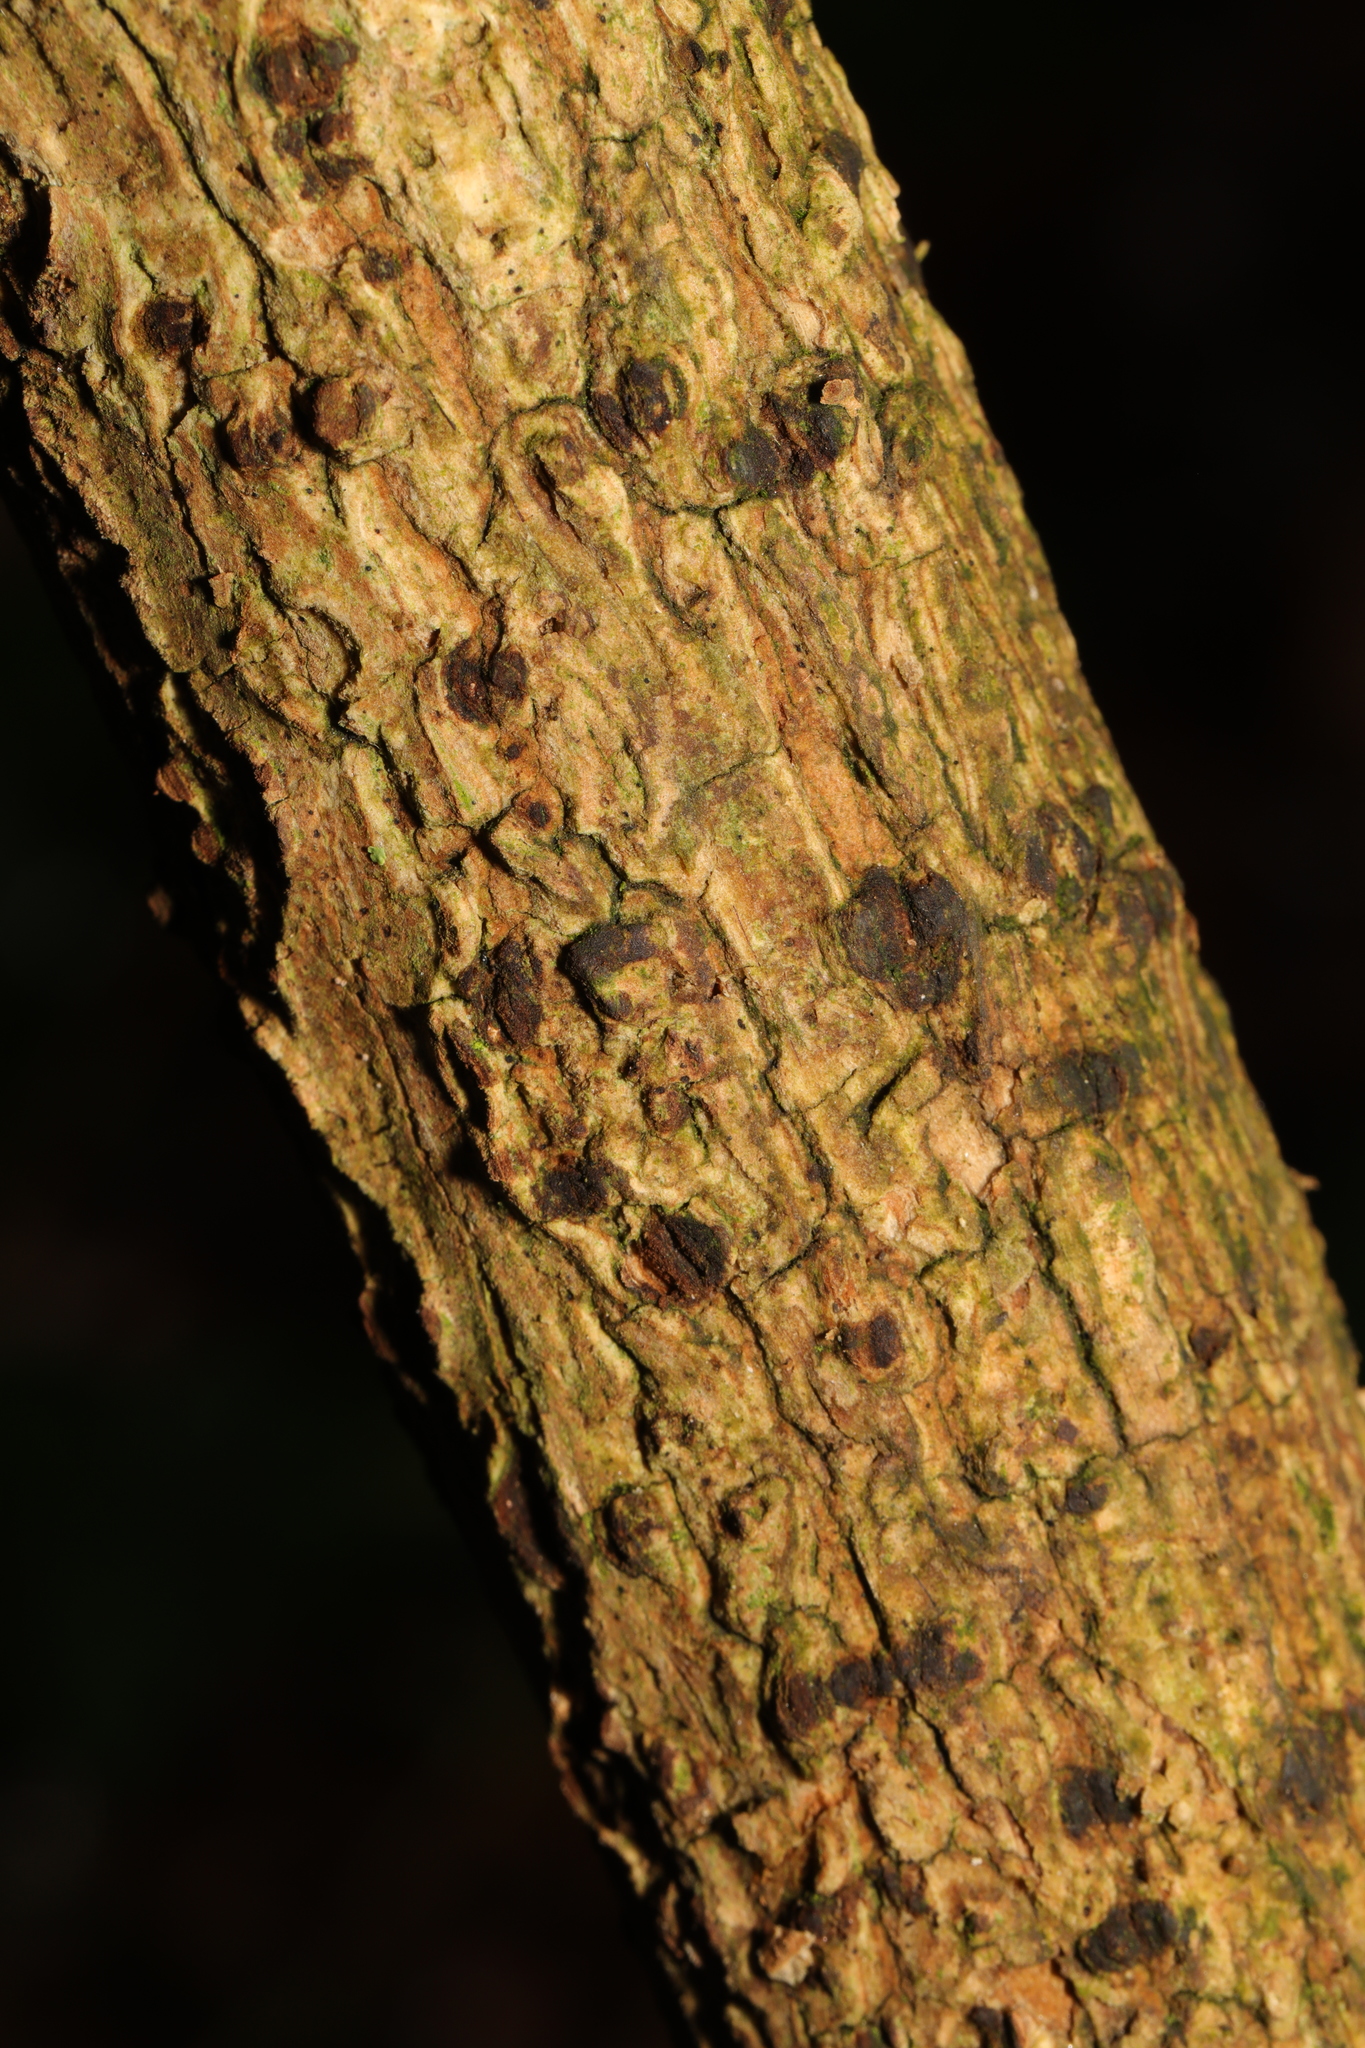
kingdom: Plantae
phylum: Tracheophyta
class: Magnoliopsida
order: Dipsacales
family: Viburnaceae
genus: Sambucus
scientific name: Sambucus nigra
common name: Elder
